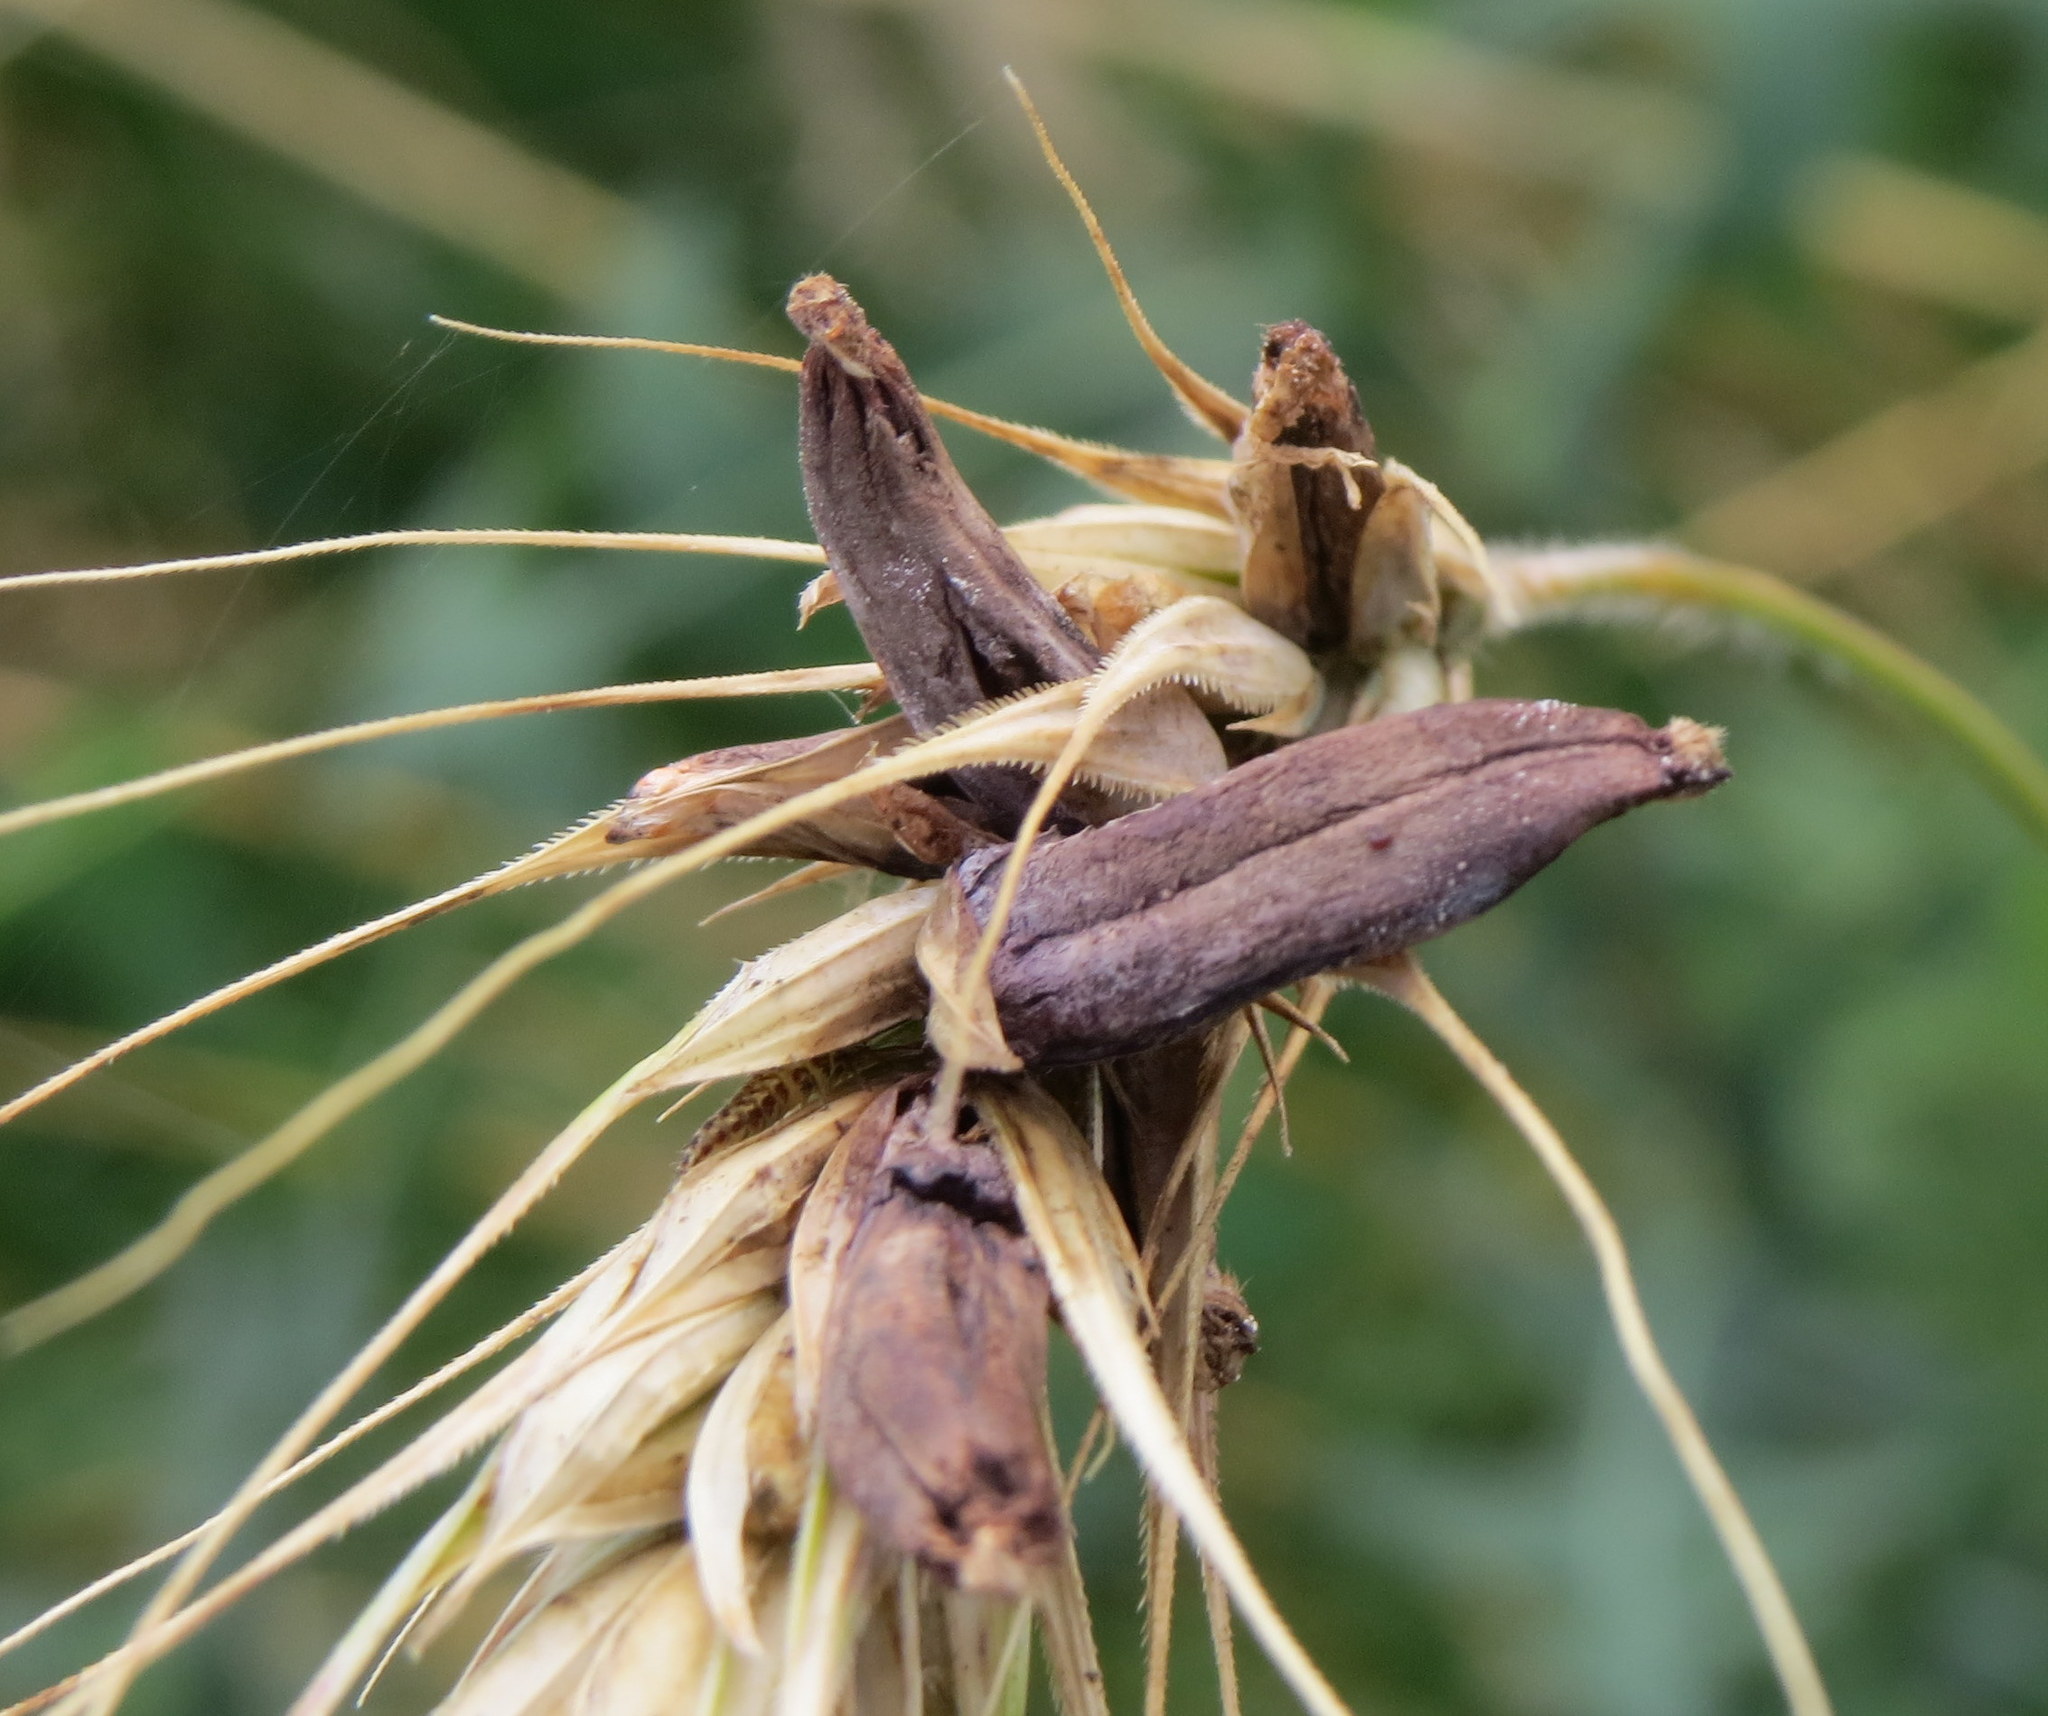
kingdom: Fungi
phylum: Ascomycota
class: Sordariomycetes
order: Hypocreales
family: Clavicipitaceae
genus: Claviceps
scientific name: Claviceps purpurea
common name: Rye ergot
